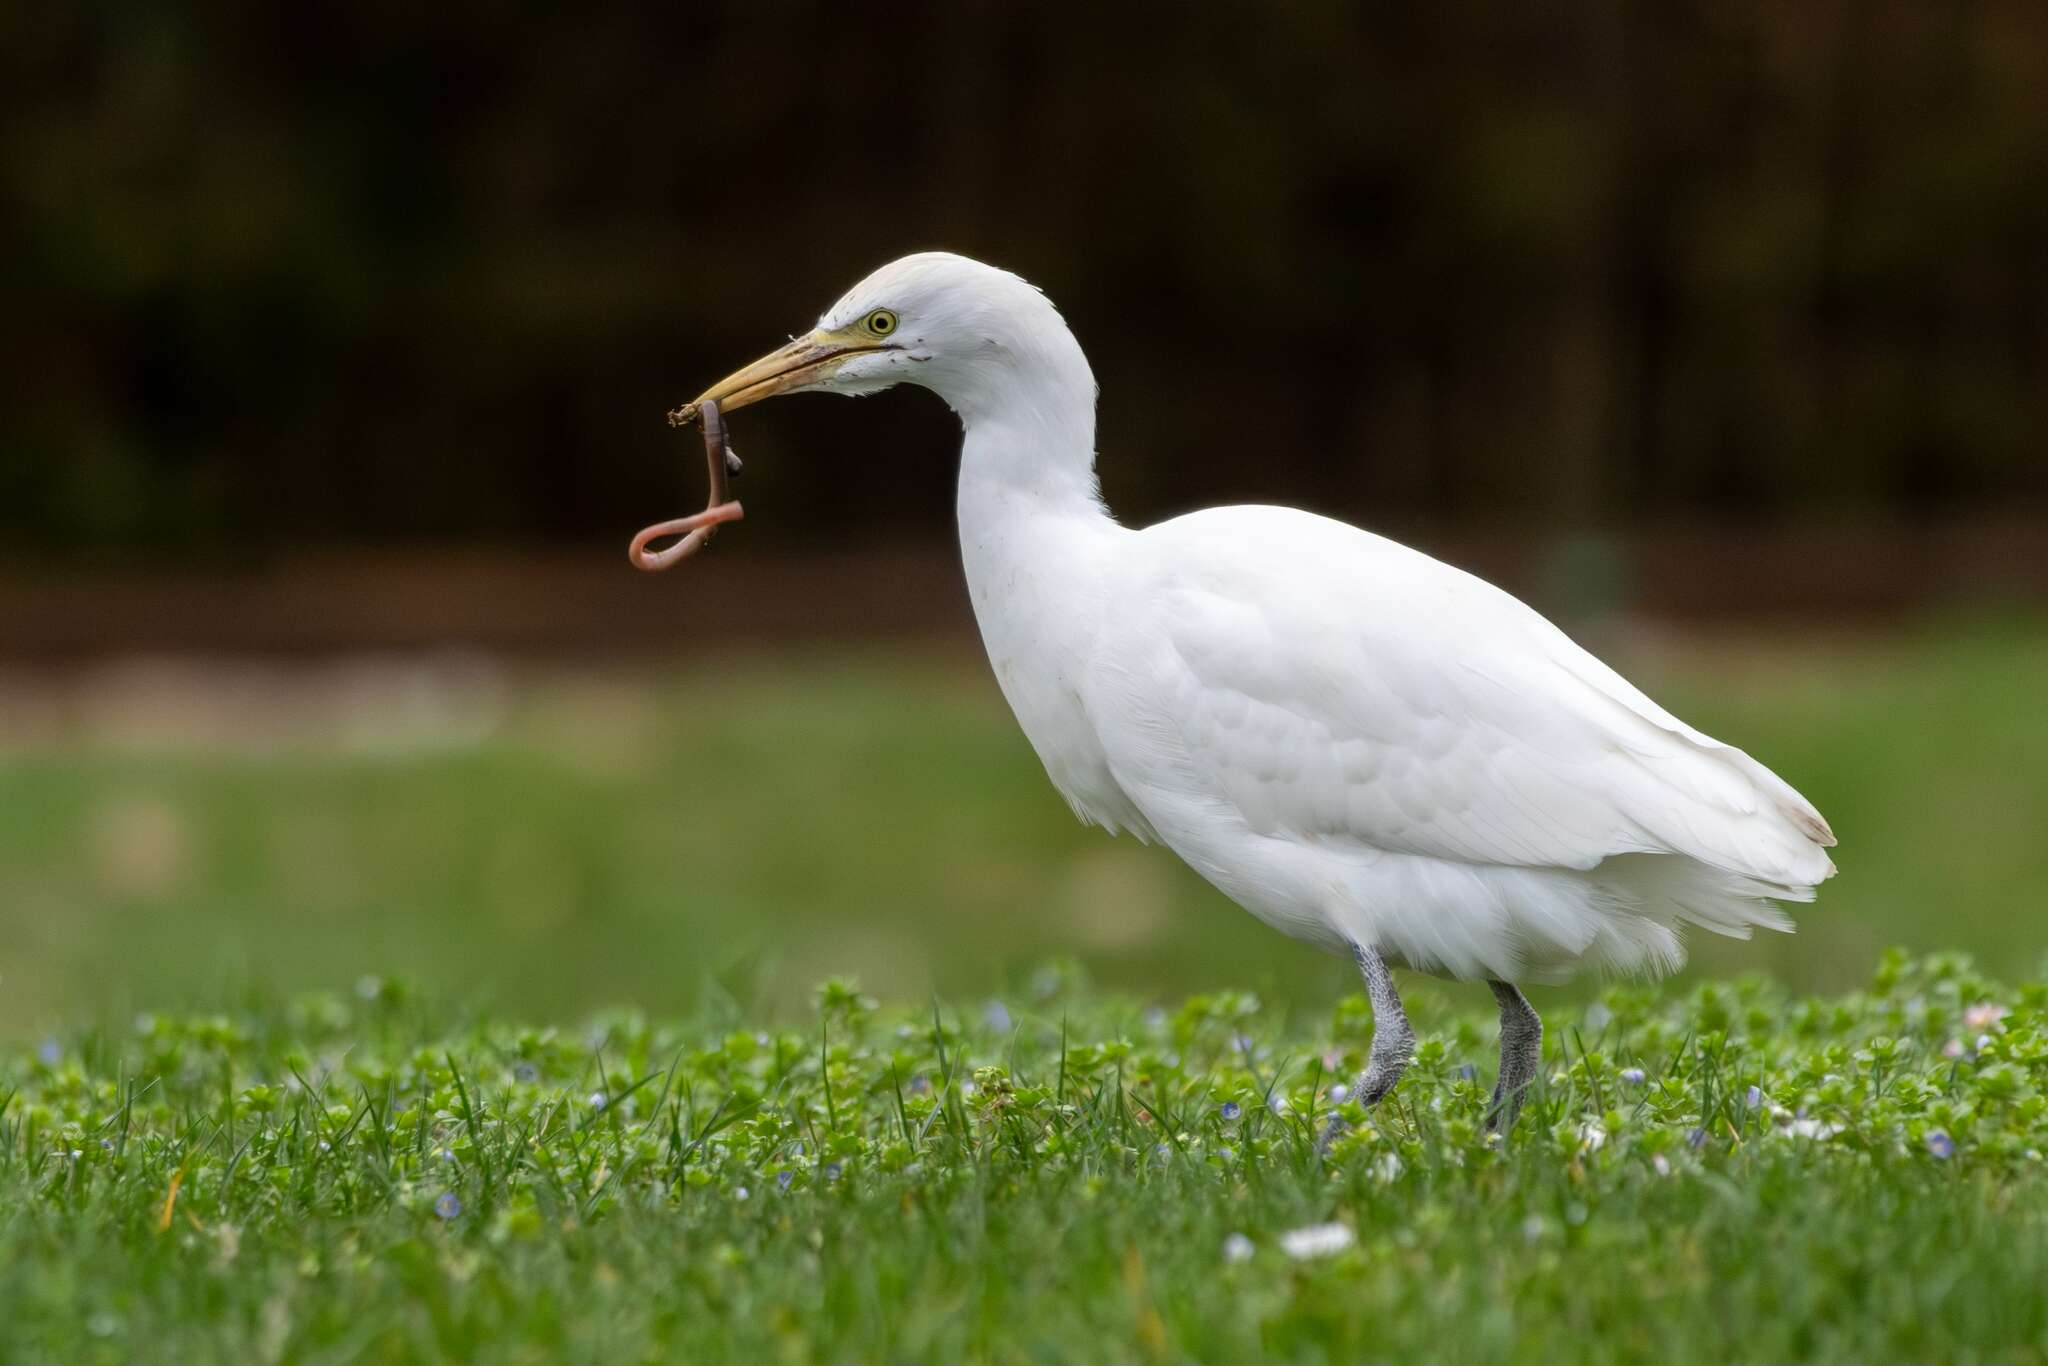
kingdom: Animalia
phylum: Chordata
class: Aves
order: Pelecaniformes
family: Ardeidae
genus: Bubulcus
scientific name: Bubulcus ibis
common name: Cattle egret
